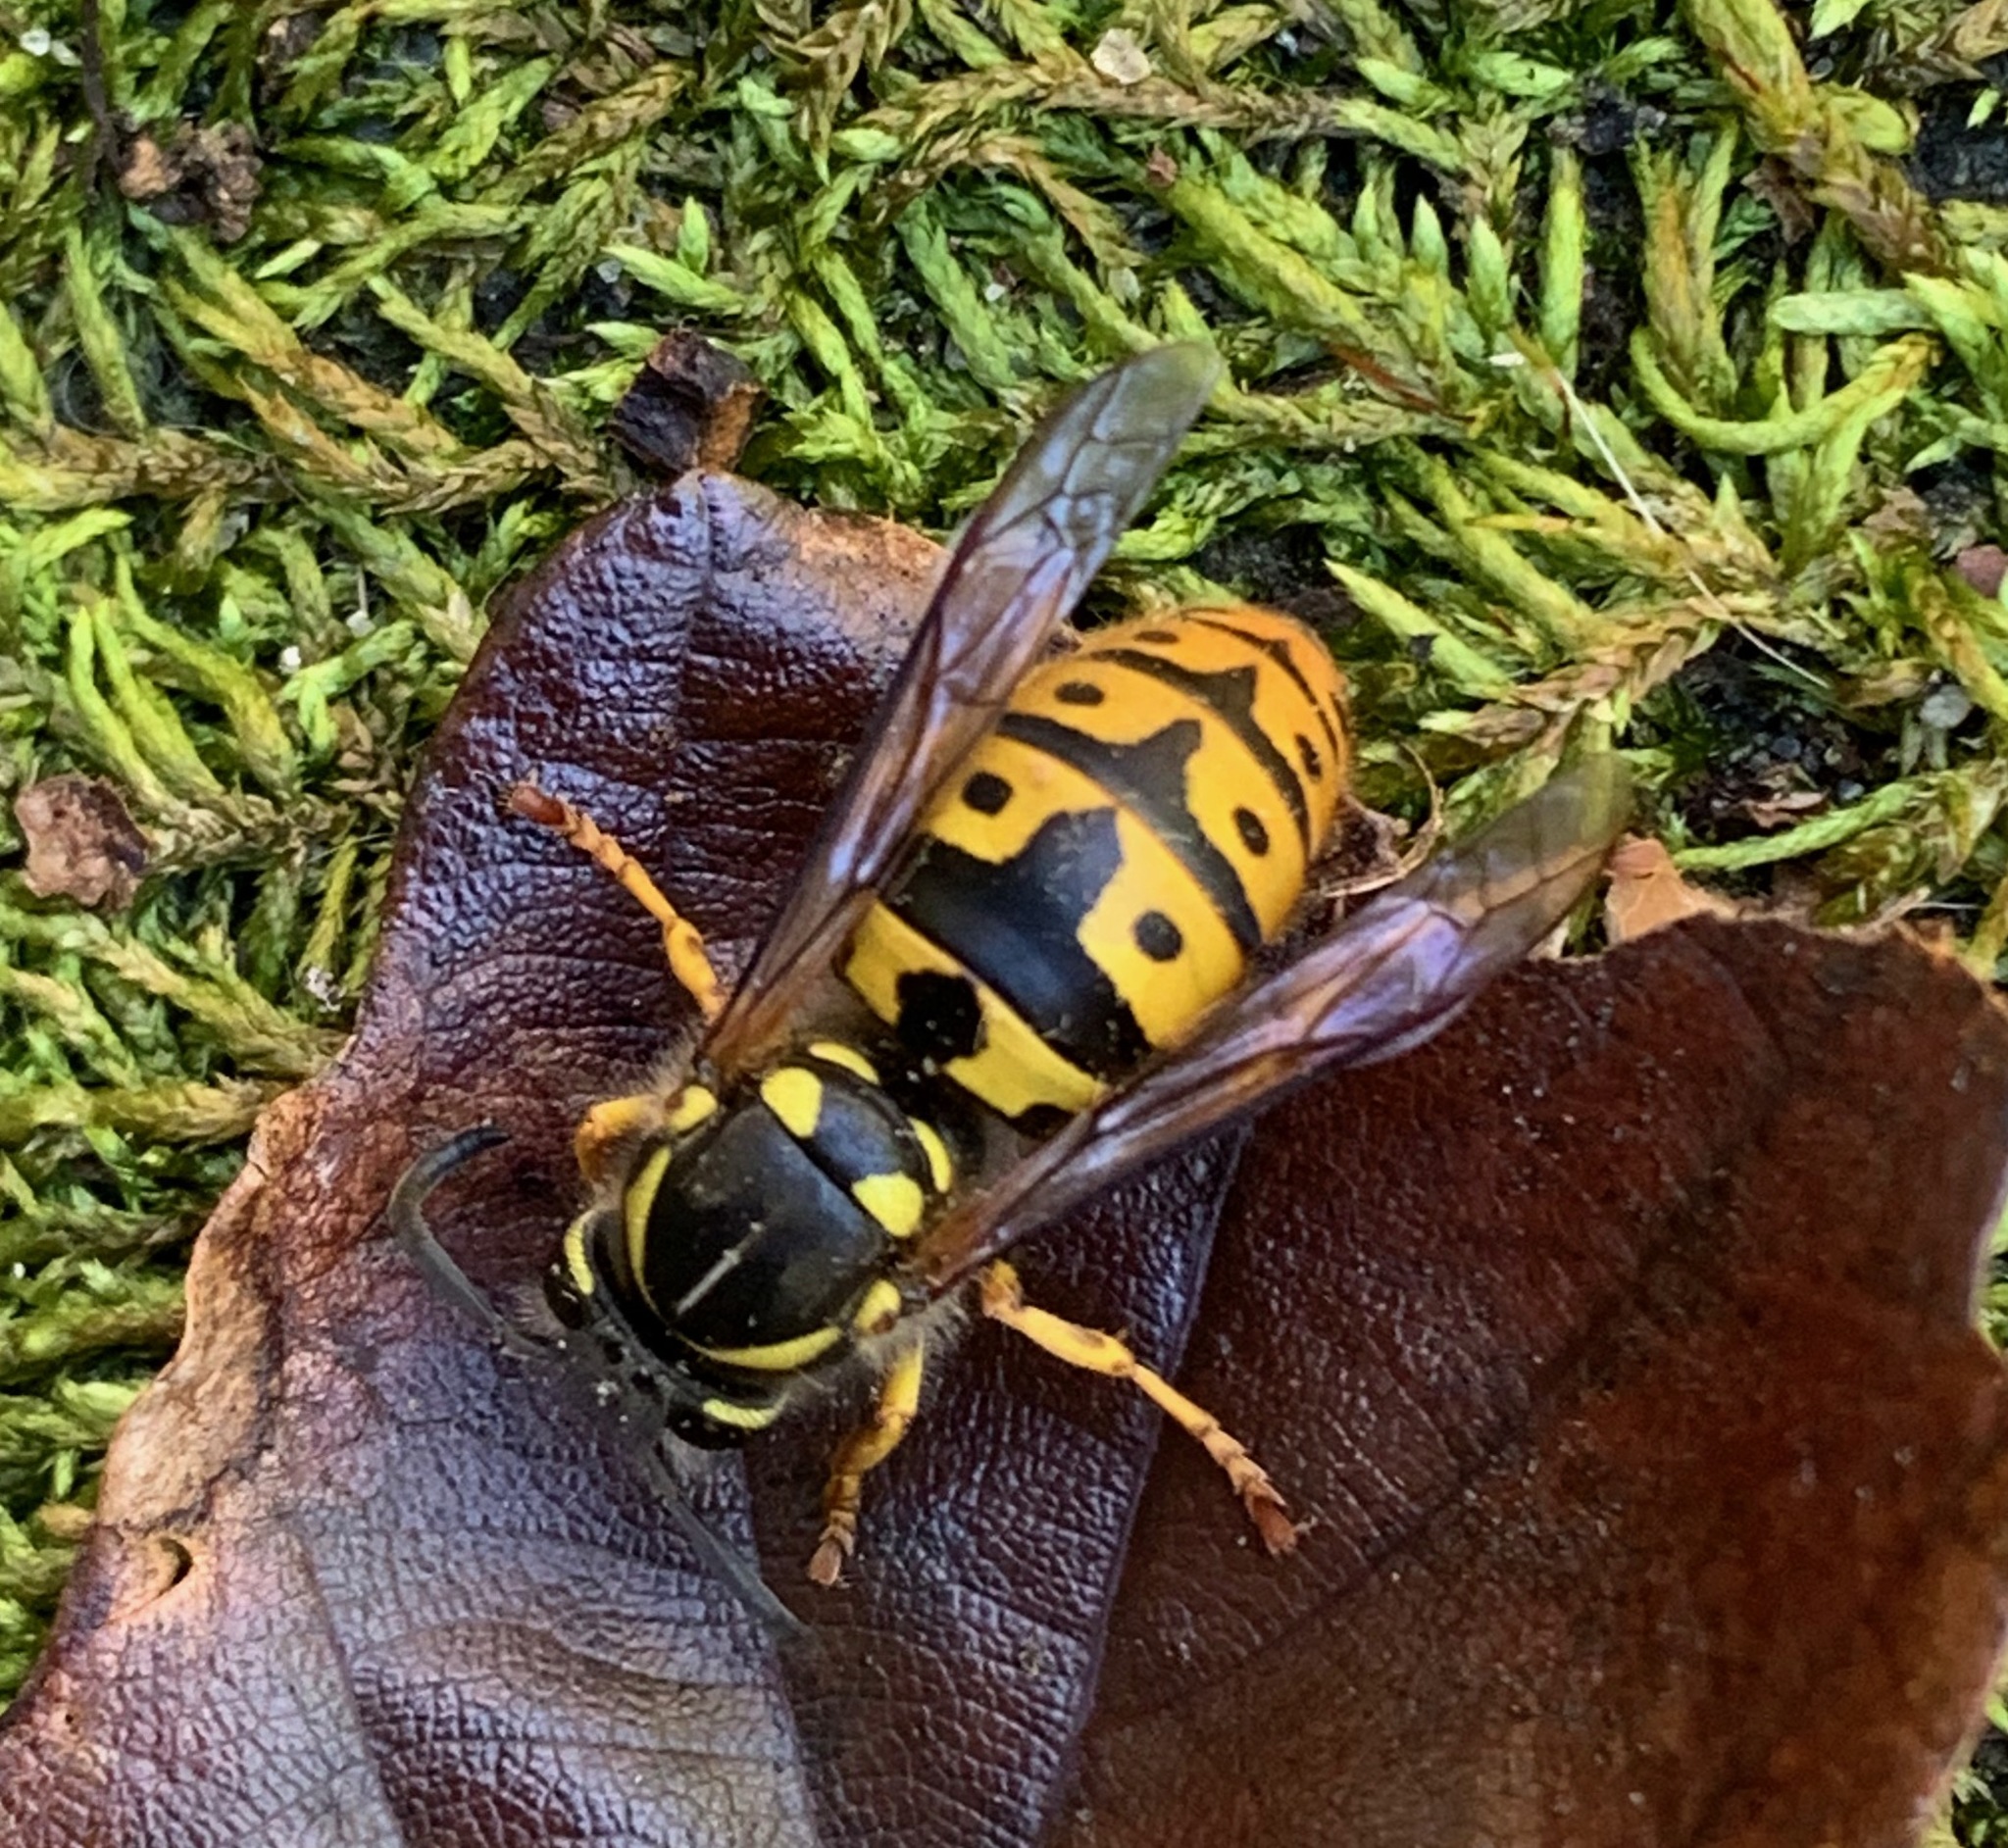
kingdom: Animalia
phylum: Arthropoda
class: Insecta
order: Hymenoptera
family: Vespidae
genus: Vespula
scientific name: Vespula germanica
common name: German wasp
